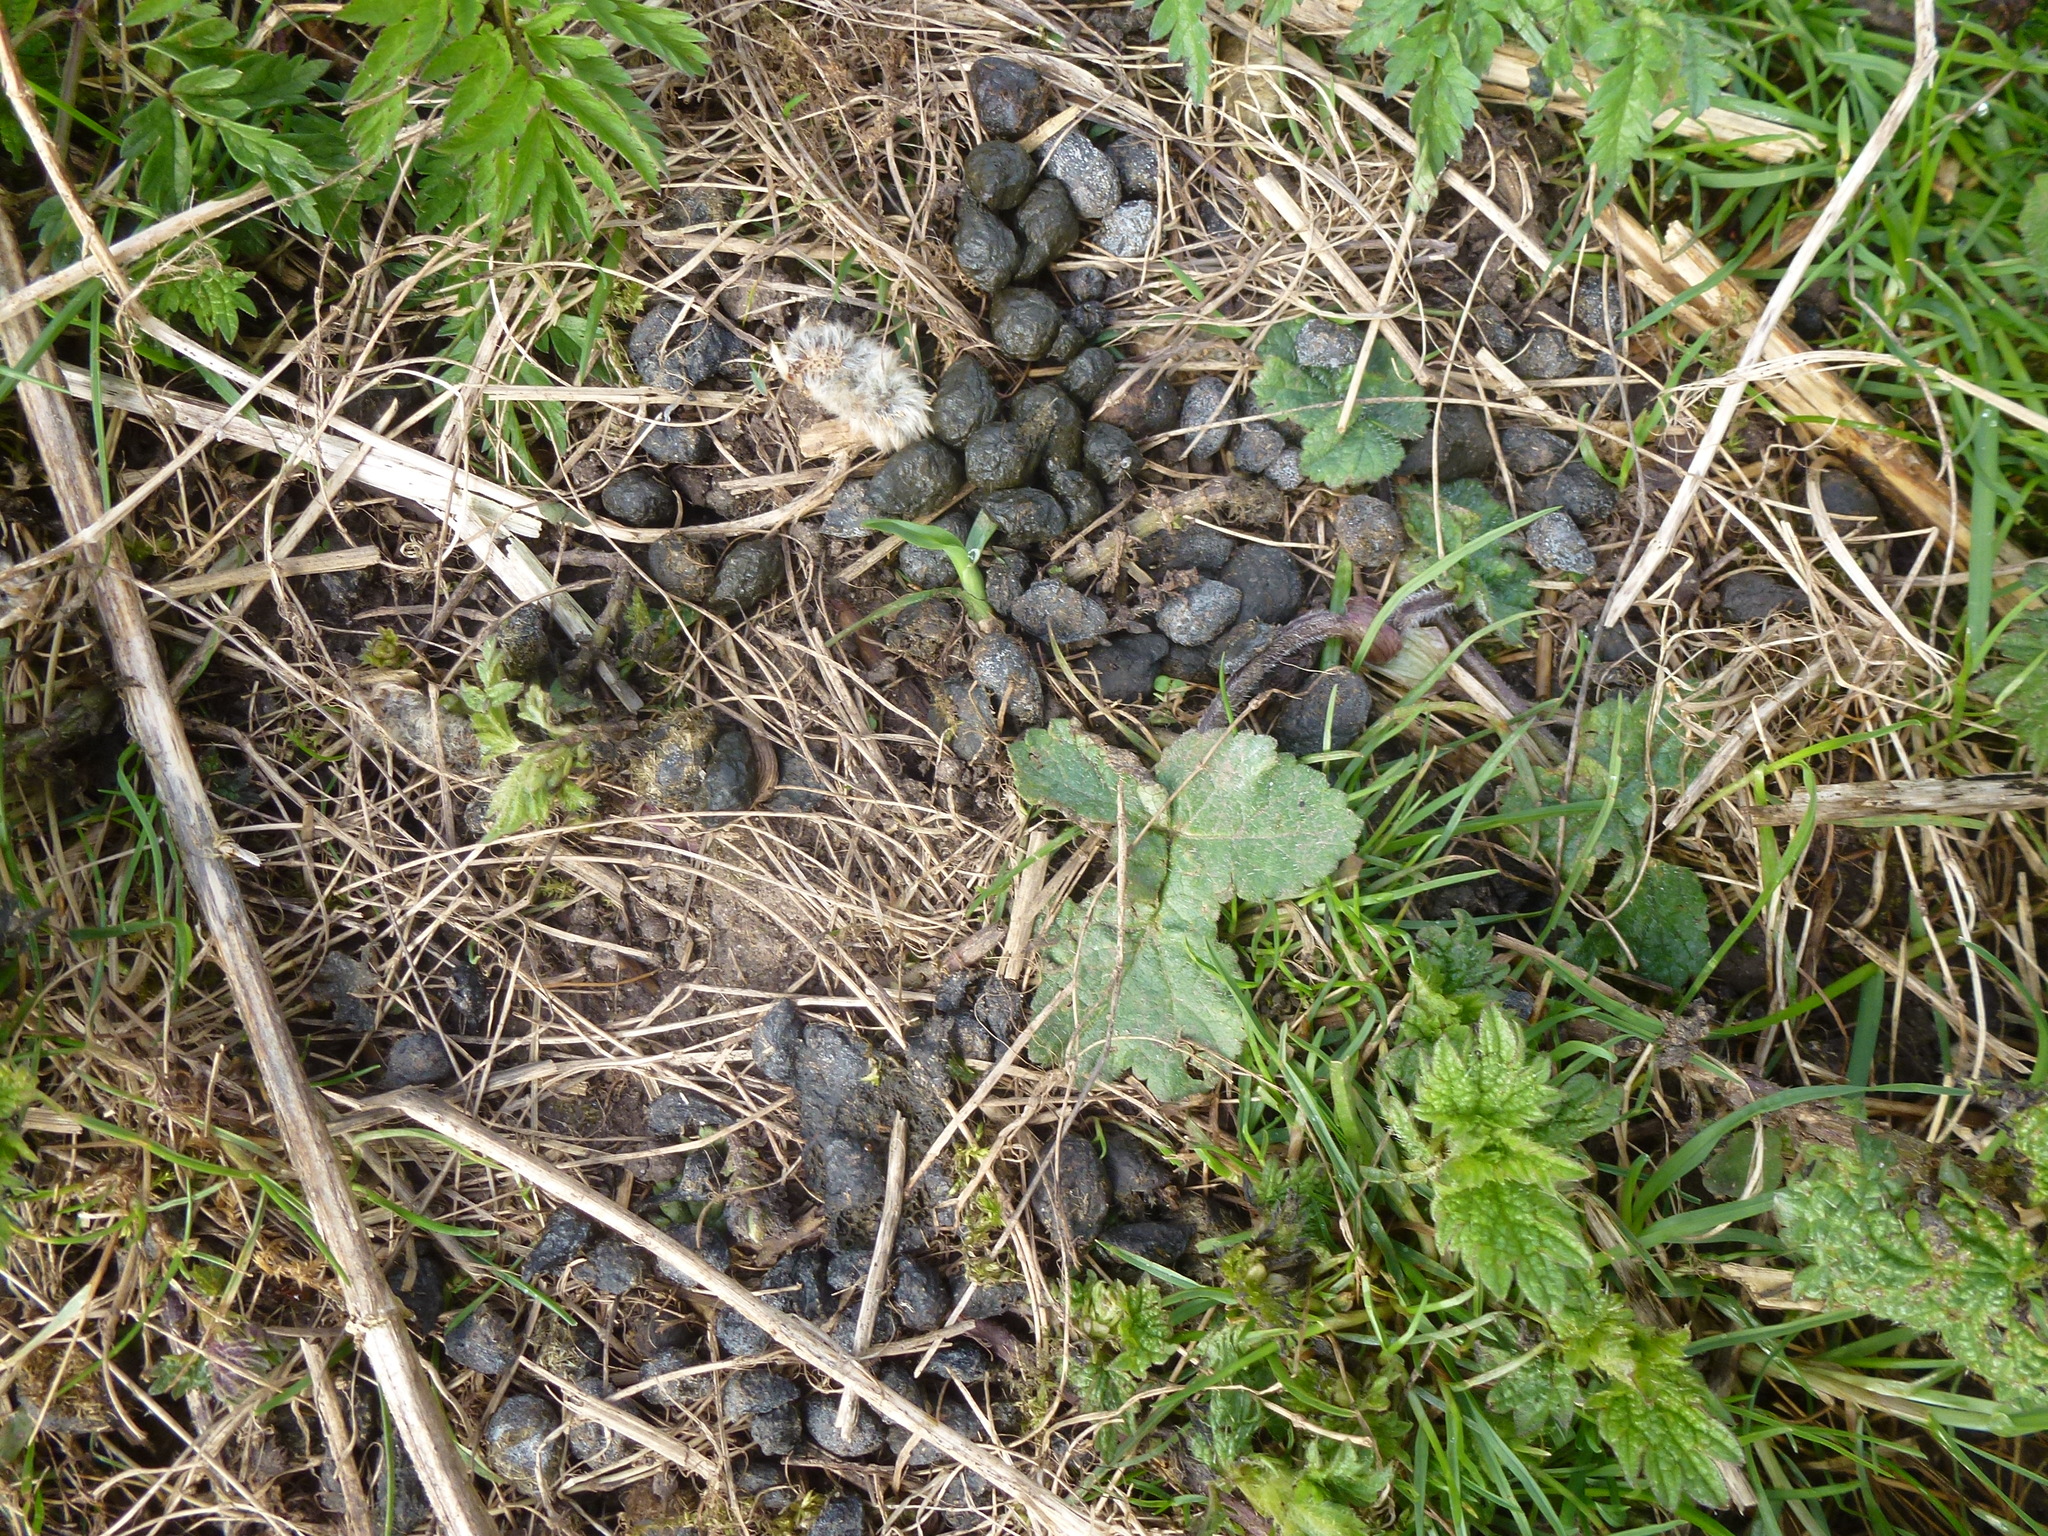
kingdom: Animalia
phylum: Chordata
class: Mammalia
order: Lagomorpha
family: Leporidae
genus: Oryctolagus
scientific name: Oryctolagus cuniculus
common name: European rabbit
